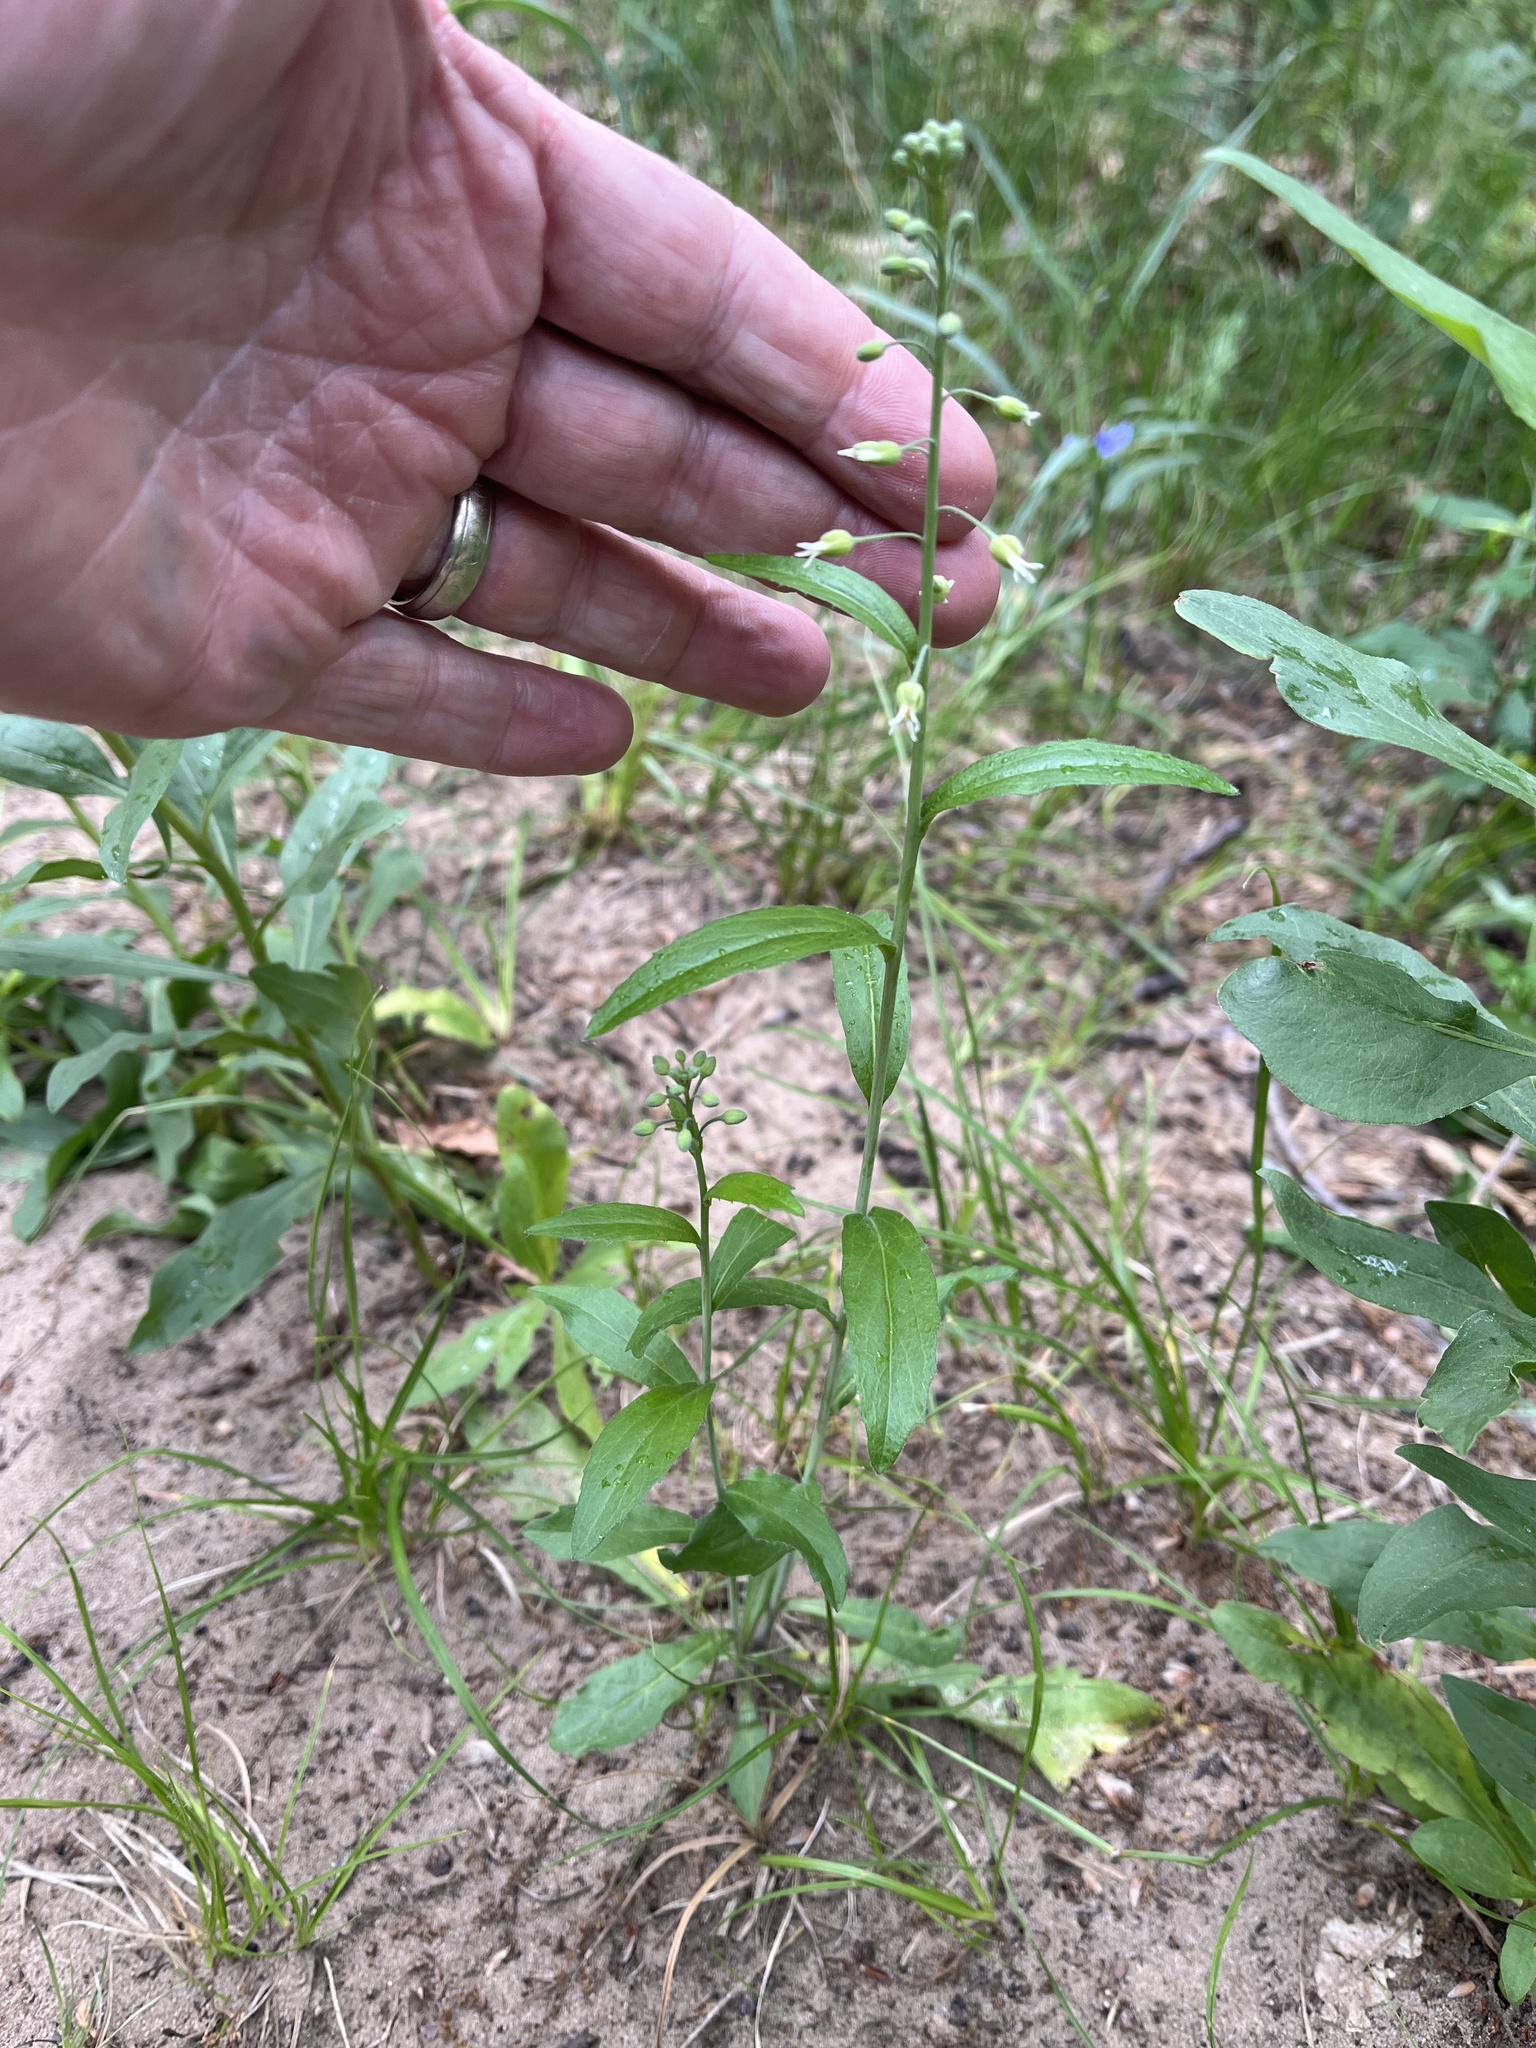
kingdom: Plantae
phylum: Tracheophyta
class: Magnoliopsida
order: Brassicales
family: Brassicaceae
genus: Borodinia
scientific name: Borodinia canadensis
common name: Sicklepod
